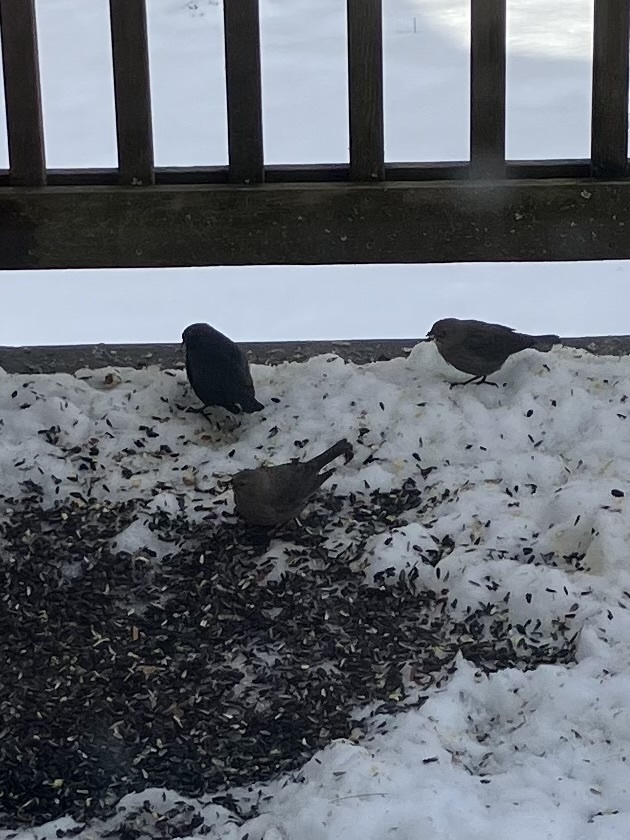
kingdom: Animalia
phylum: Chordata
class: Aves
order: Passeriformes
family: Icteridae
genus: Molothrus
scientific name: Molothrus ater
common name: Brown-headed cowbird
